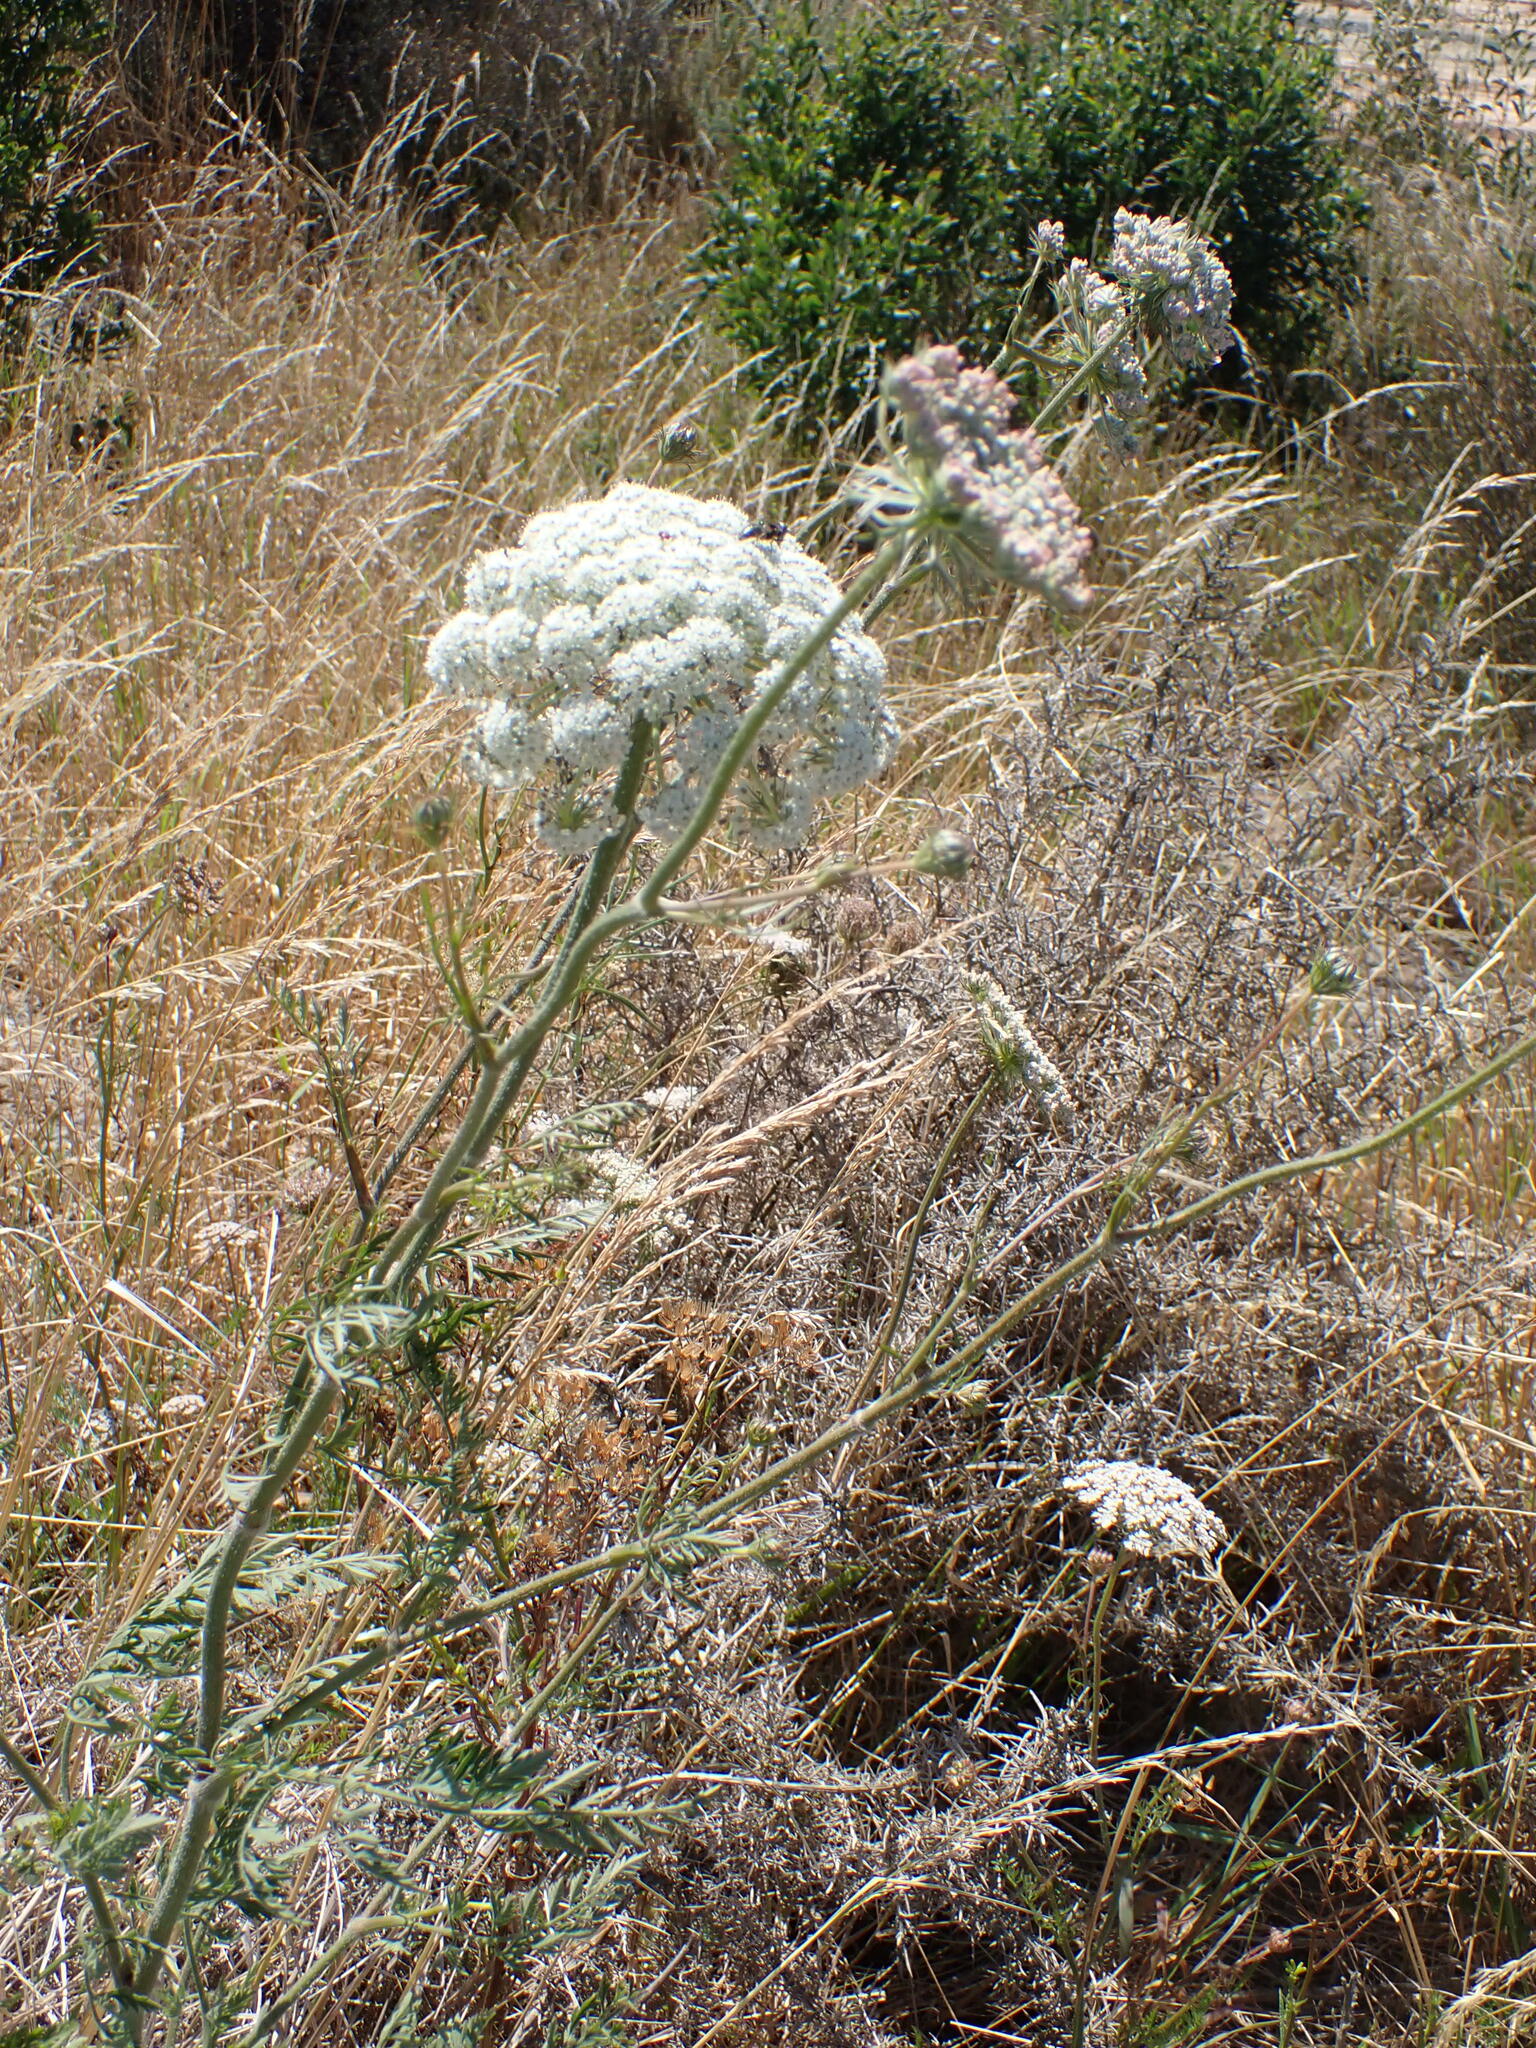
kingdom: Plantae
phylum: Tracheophyta
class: Magnoliopsida
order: Apiales
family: Apiaceae
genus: Daucus
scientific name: Daucus carota
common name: Wild carrot
